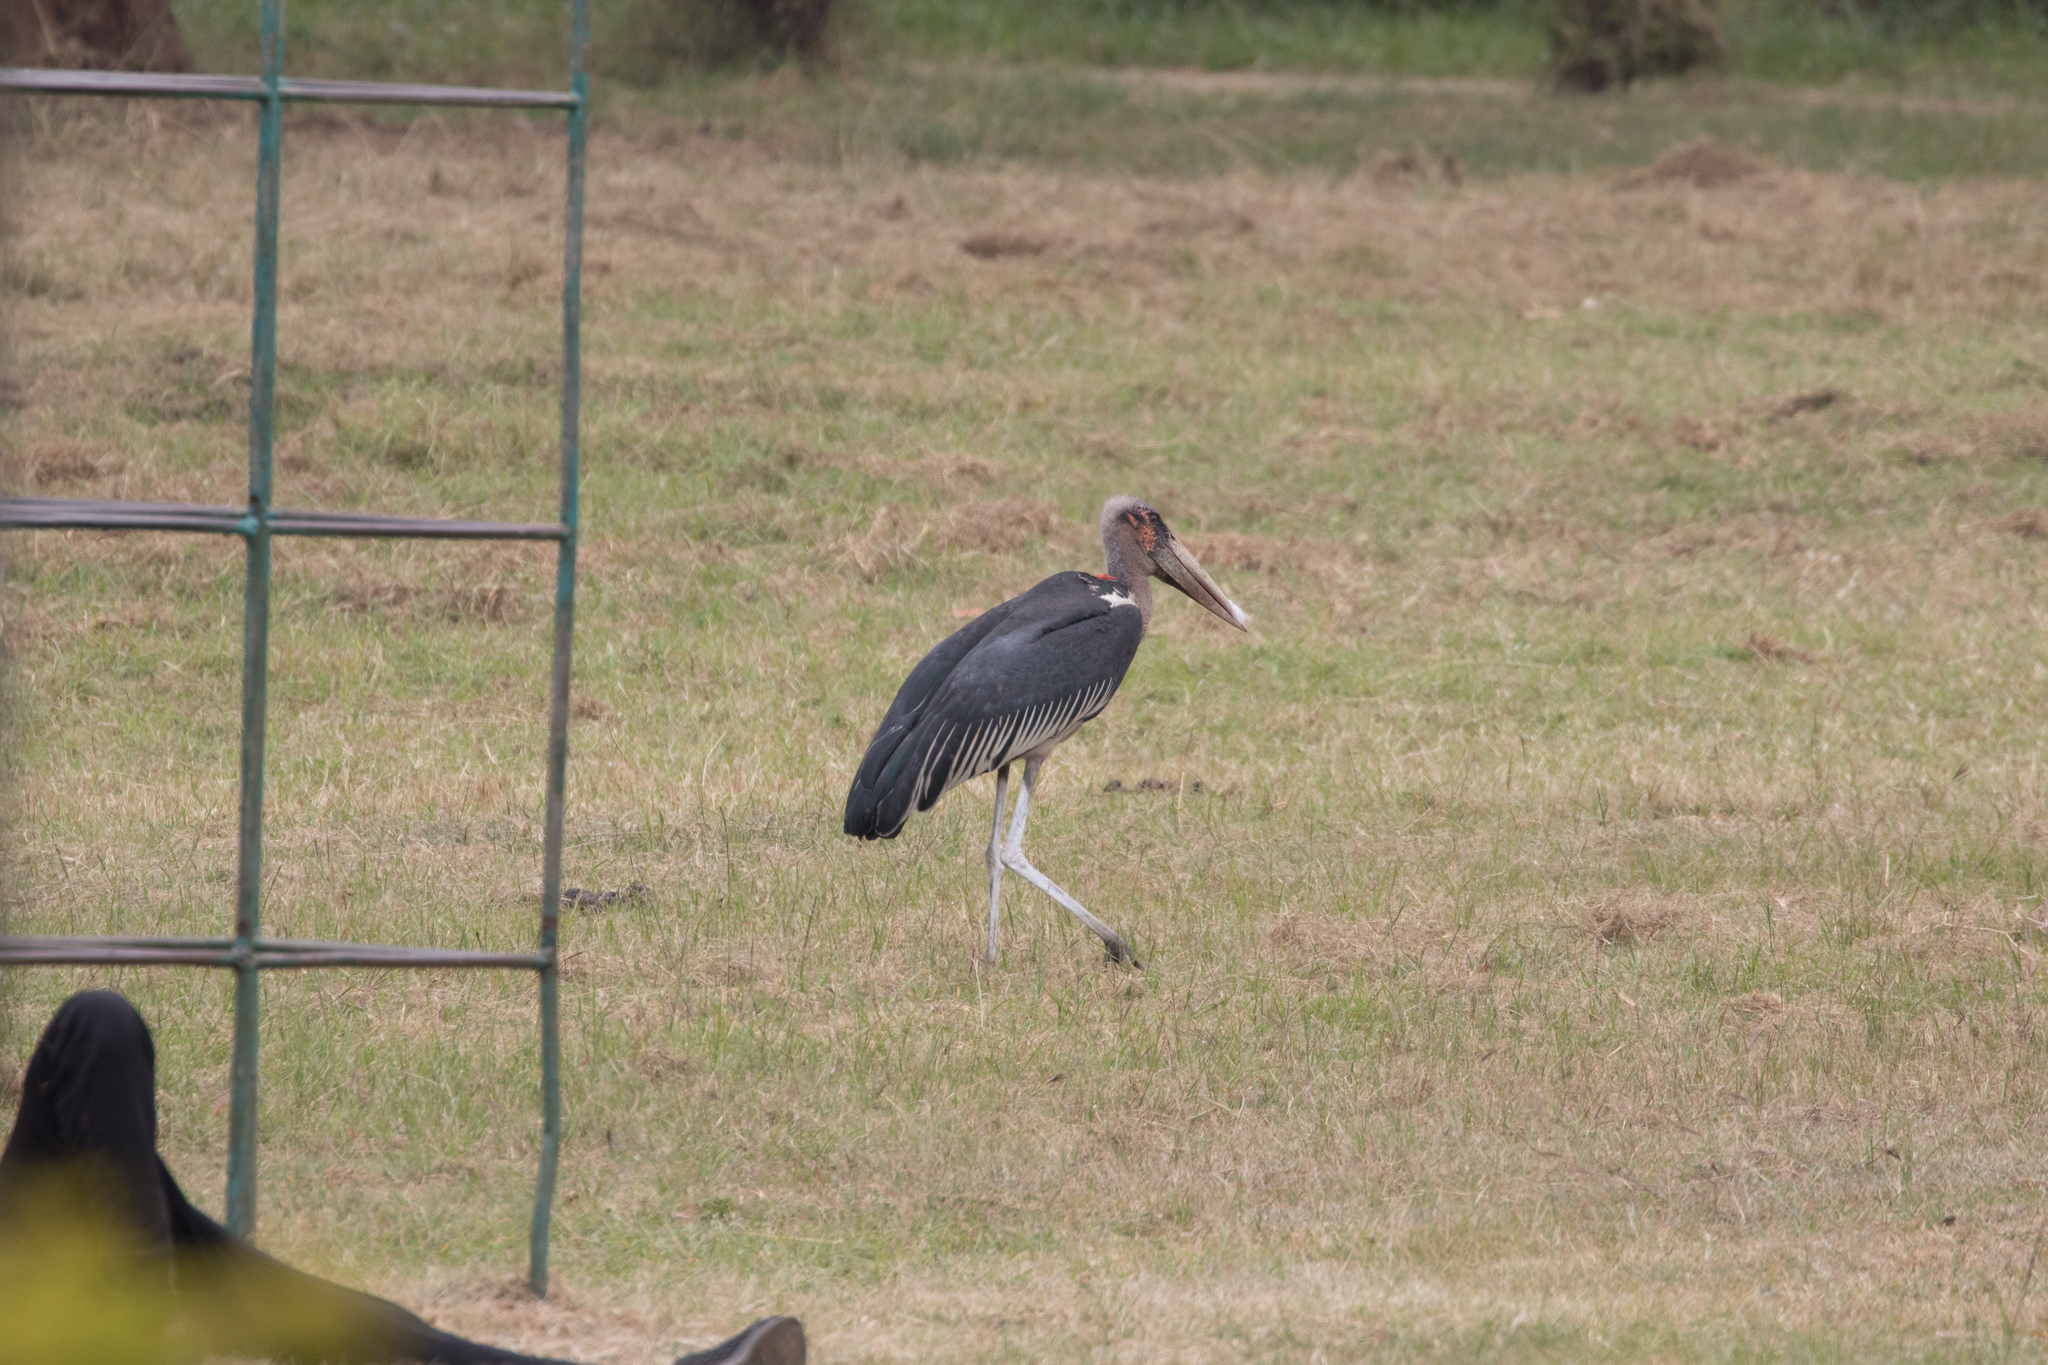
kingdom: Animalia
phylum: Chordata
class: Aves
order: Ciconiiformes
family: Ciconiidae
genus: Leptoptilos
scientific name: Leptoptilos crumenifer
